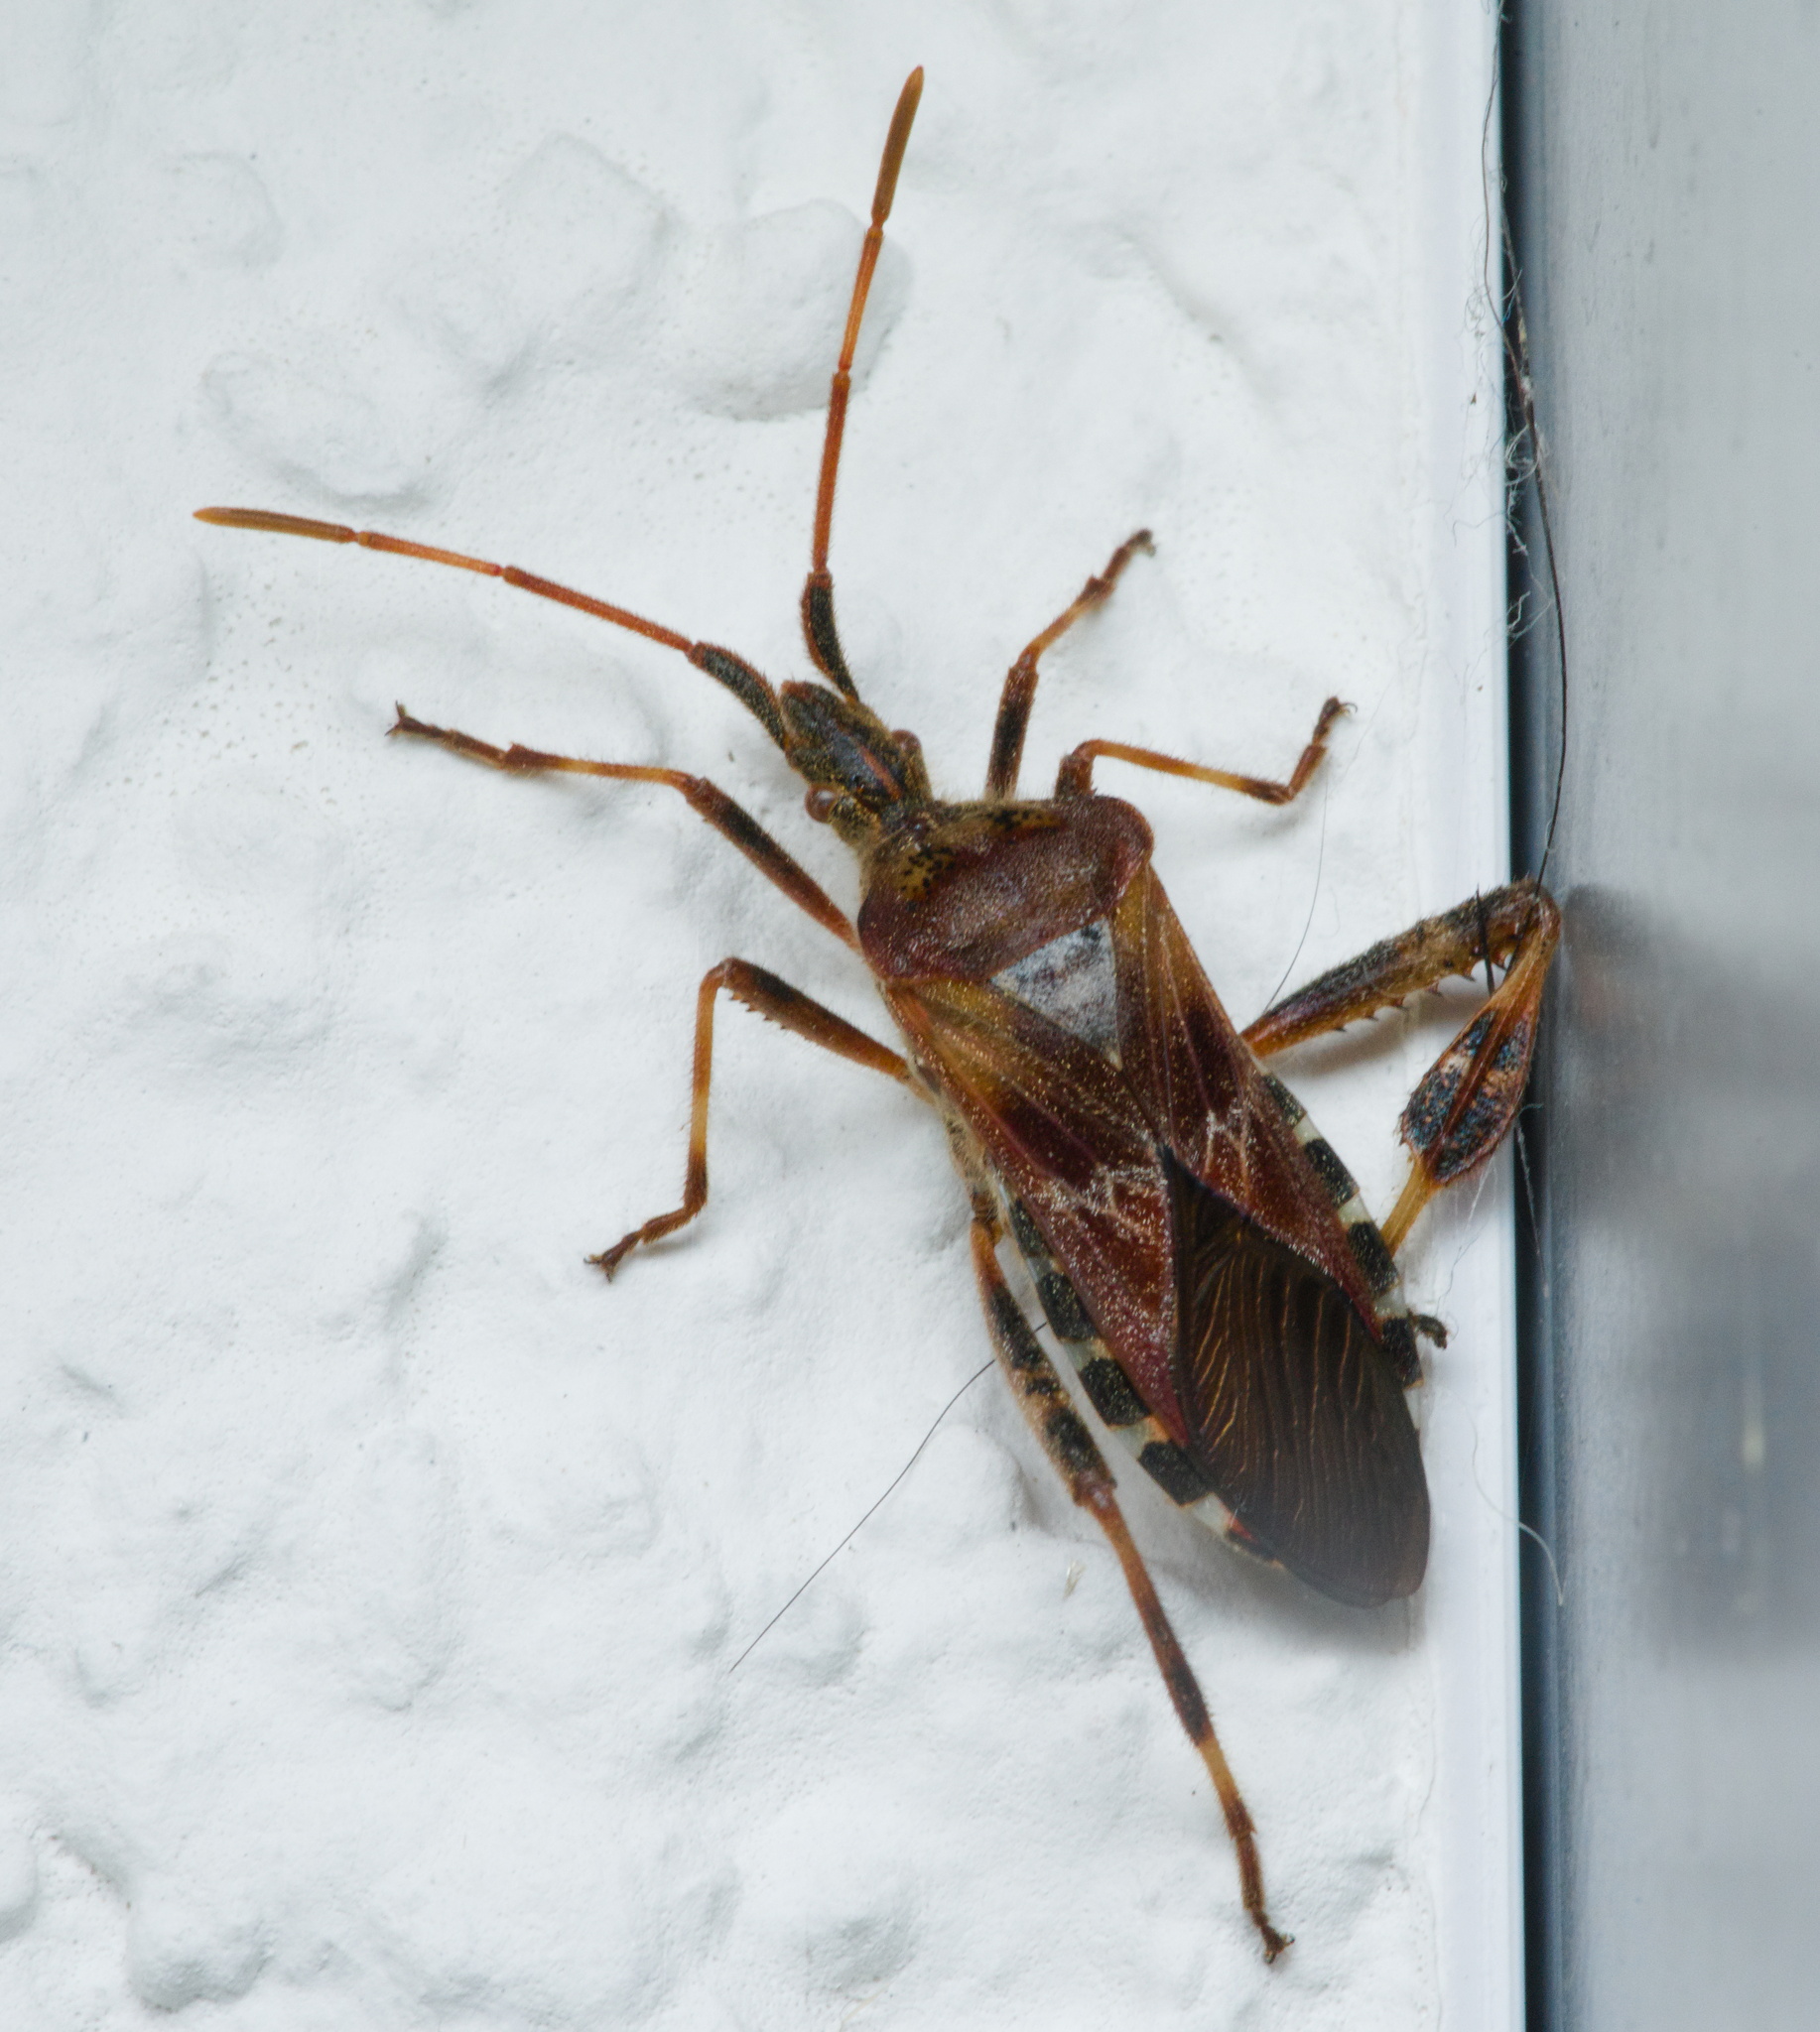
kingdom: Animalia
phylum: Arthropoda
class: Insecta
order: Hemiptera
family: Coreidae
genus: Leptoglossus
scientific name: Leptoglossus occidentalis
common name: Western conifer-seed bug
